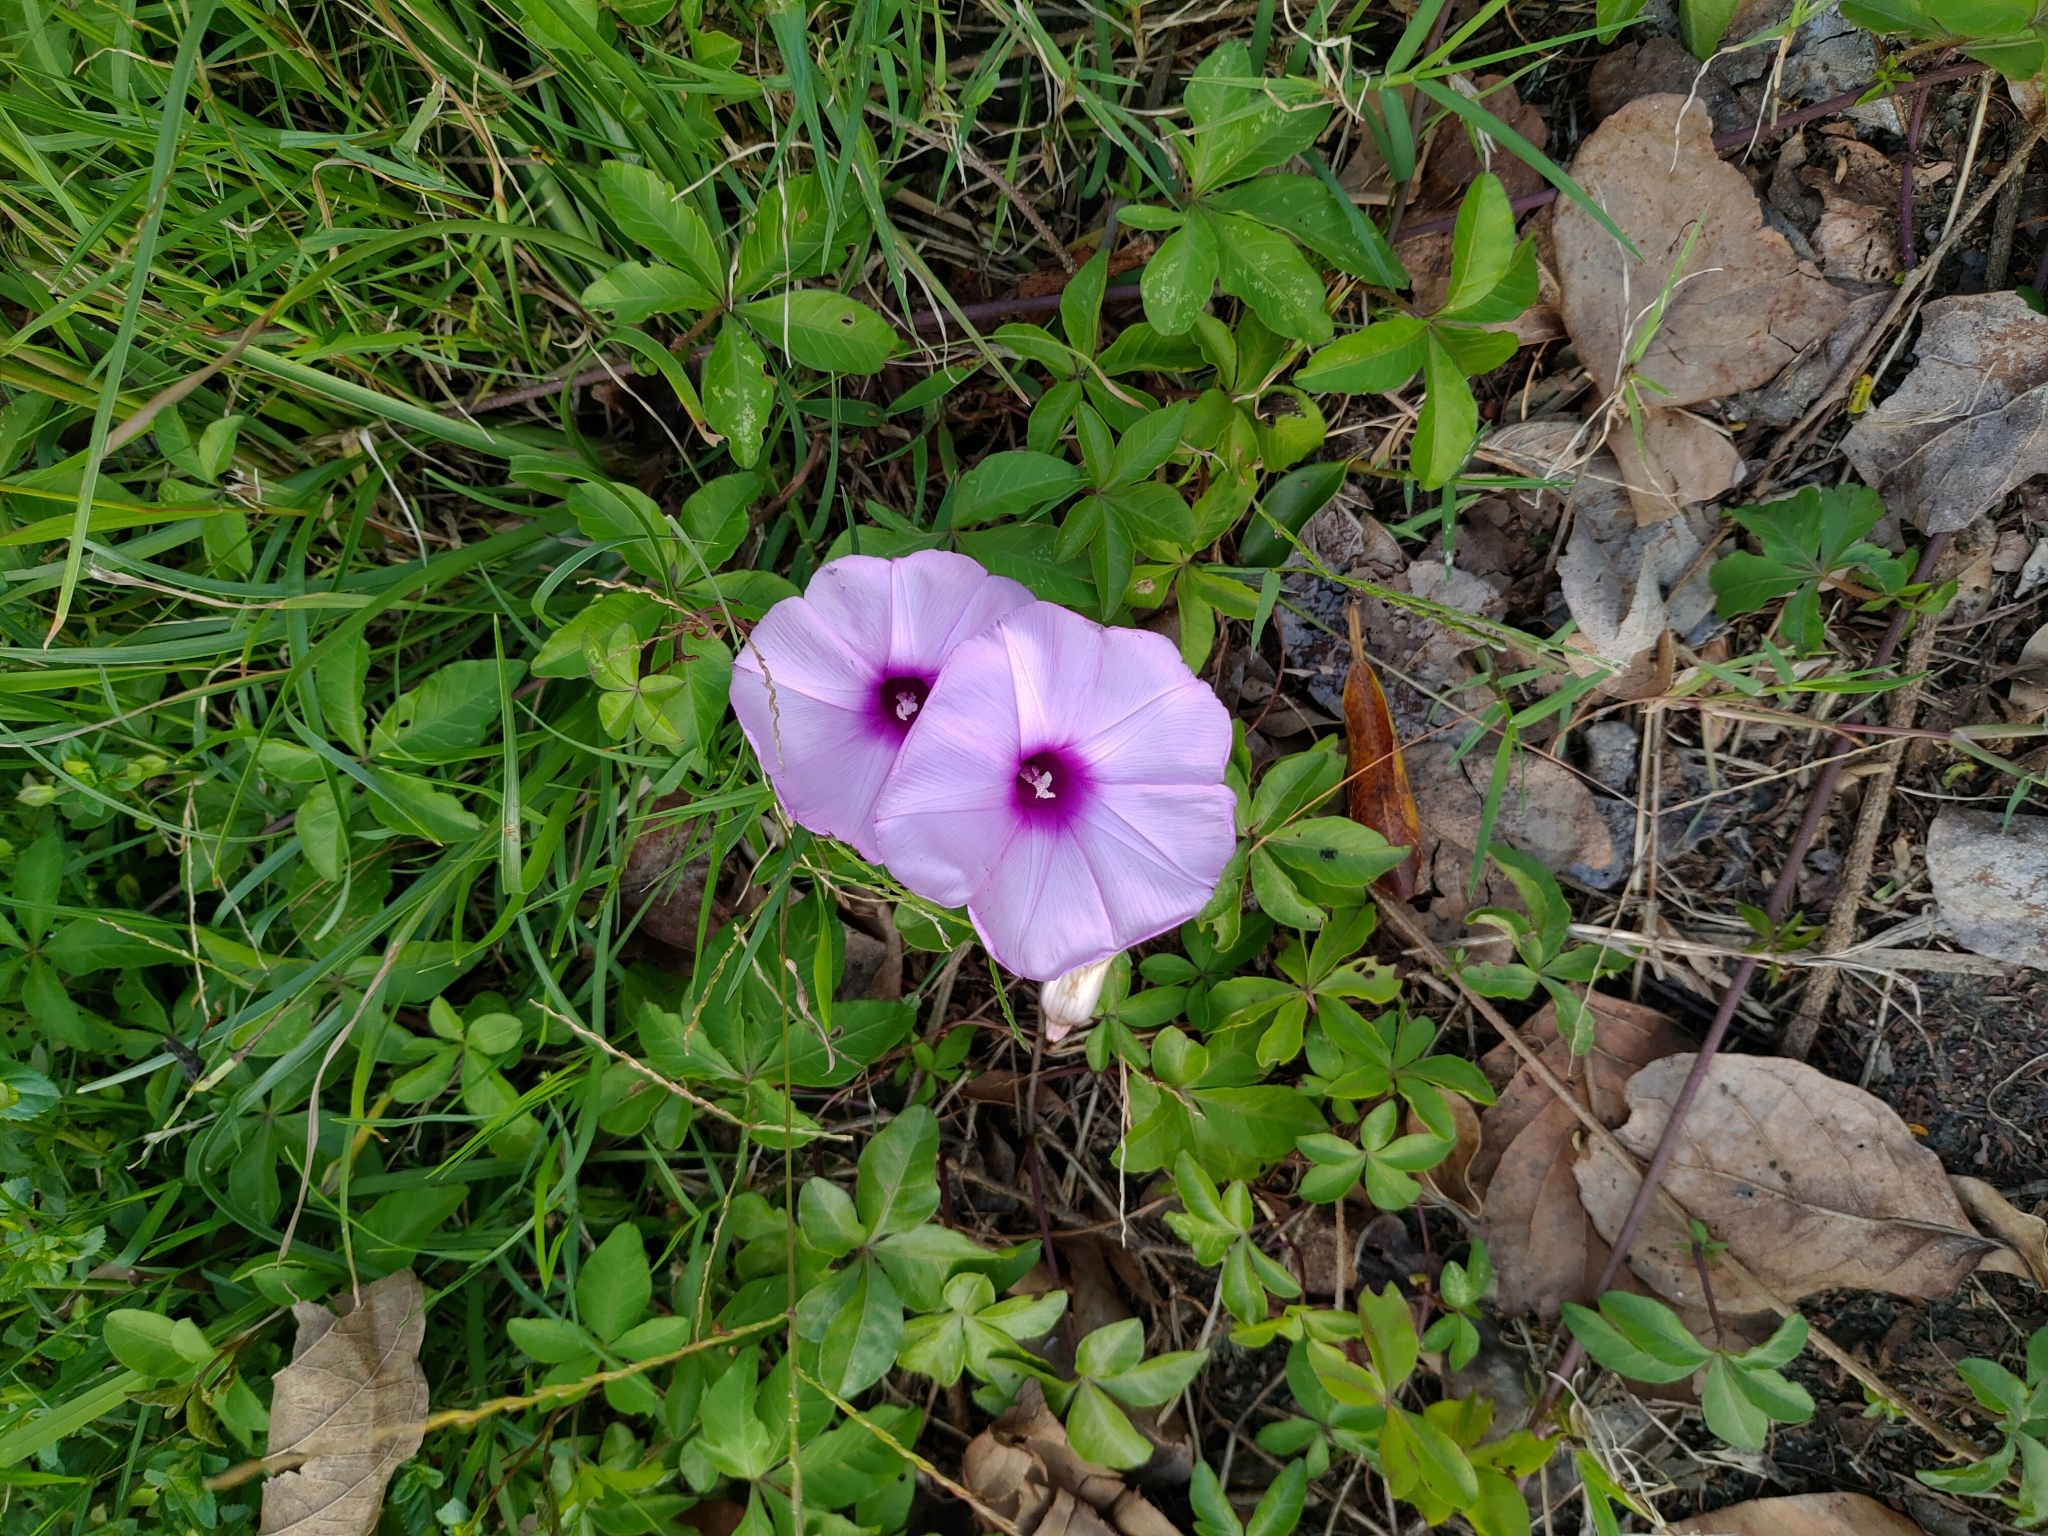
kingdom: Plantae
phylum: Tracheophyta
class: Magnoliopsida
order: Solanales
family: Convolvulaceae
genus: Ipomoea
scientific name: Ipomoea cairica
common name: Mile a minute vine
